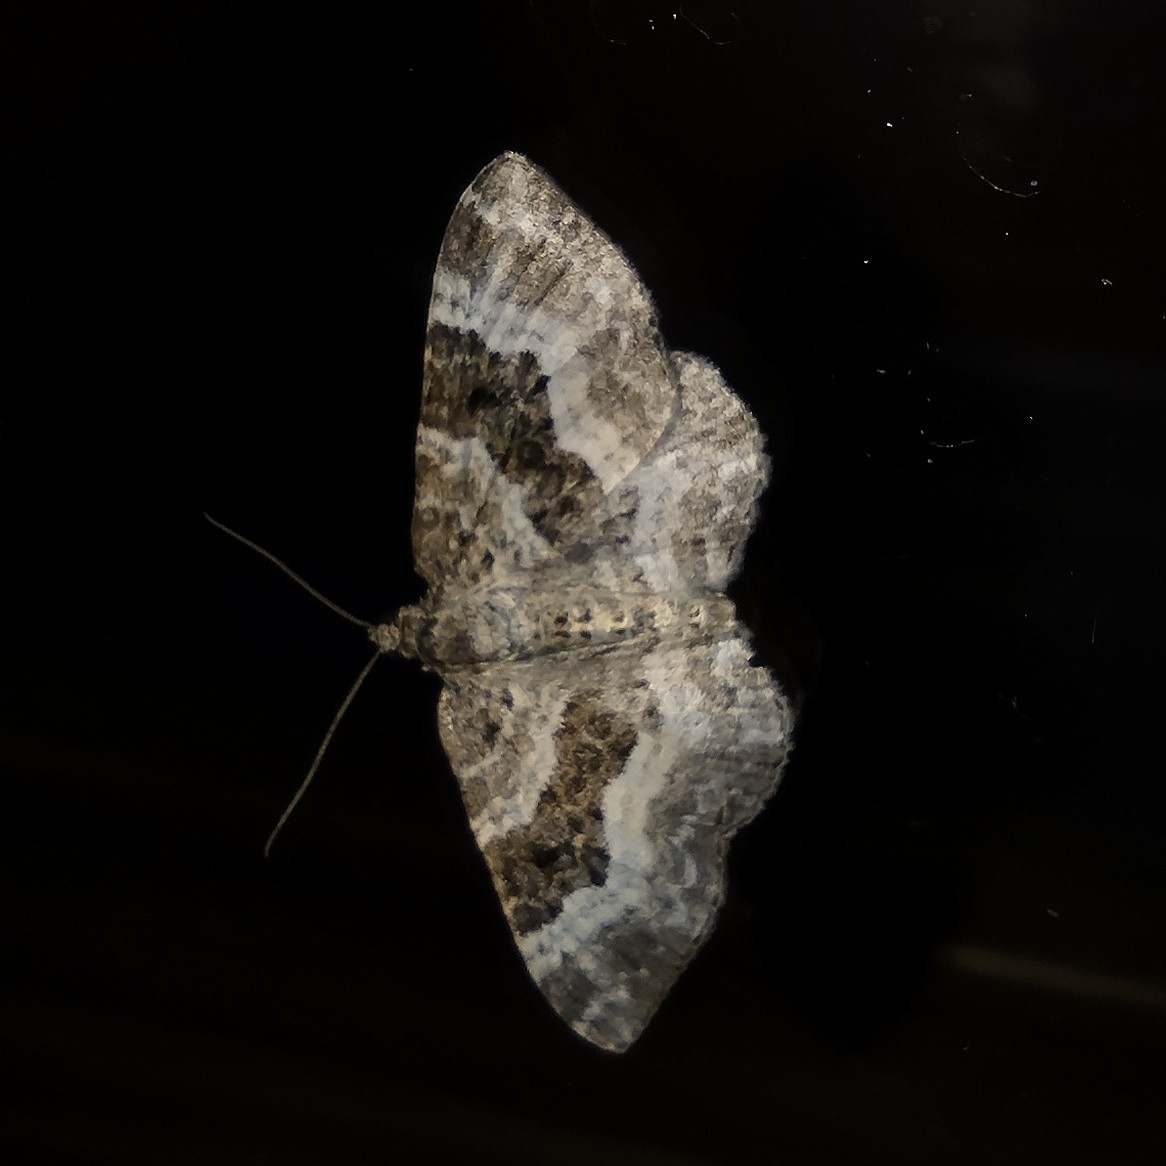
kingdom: Animalia
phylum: Arthropoda
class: Insecta
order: Lepidoptera
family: Geometridae
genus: Epirrhoe
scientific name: Epirrhoe alternata
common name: Common carpet
